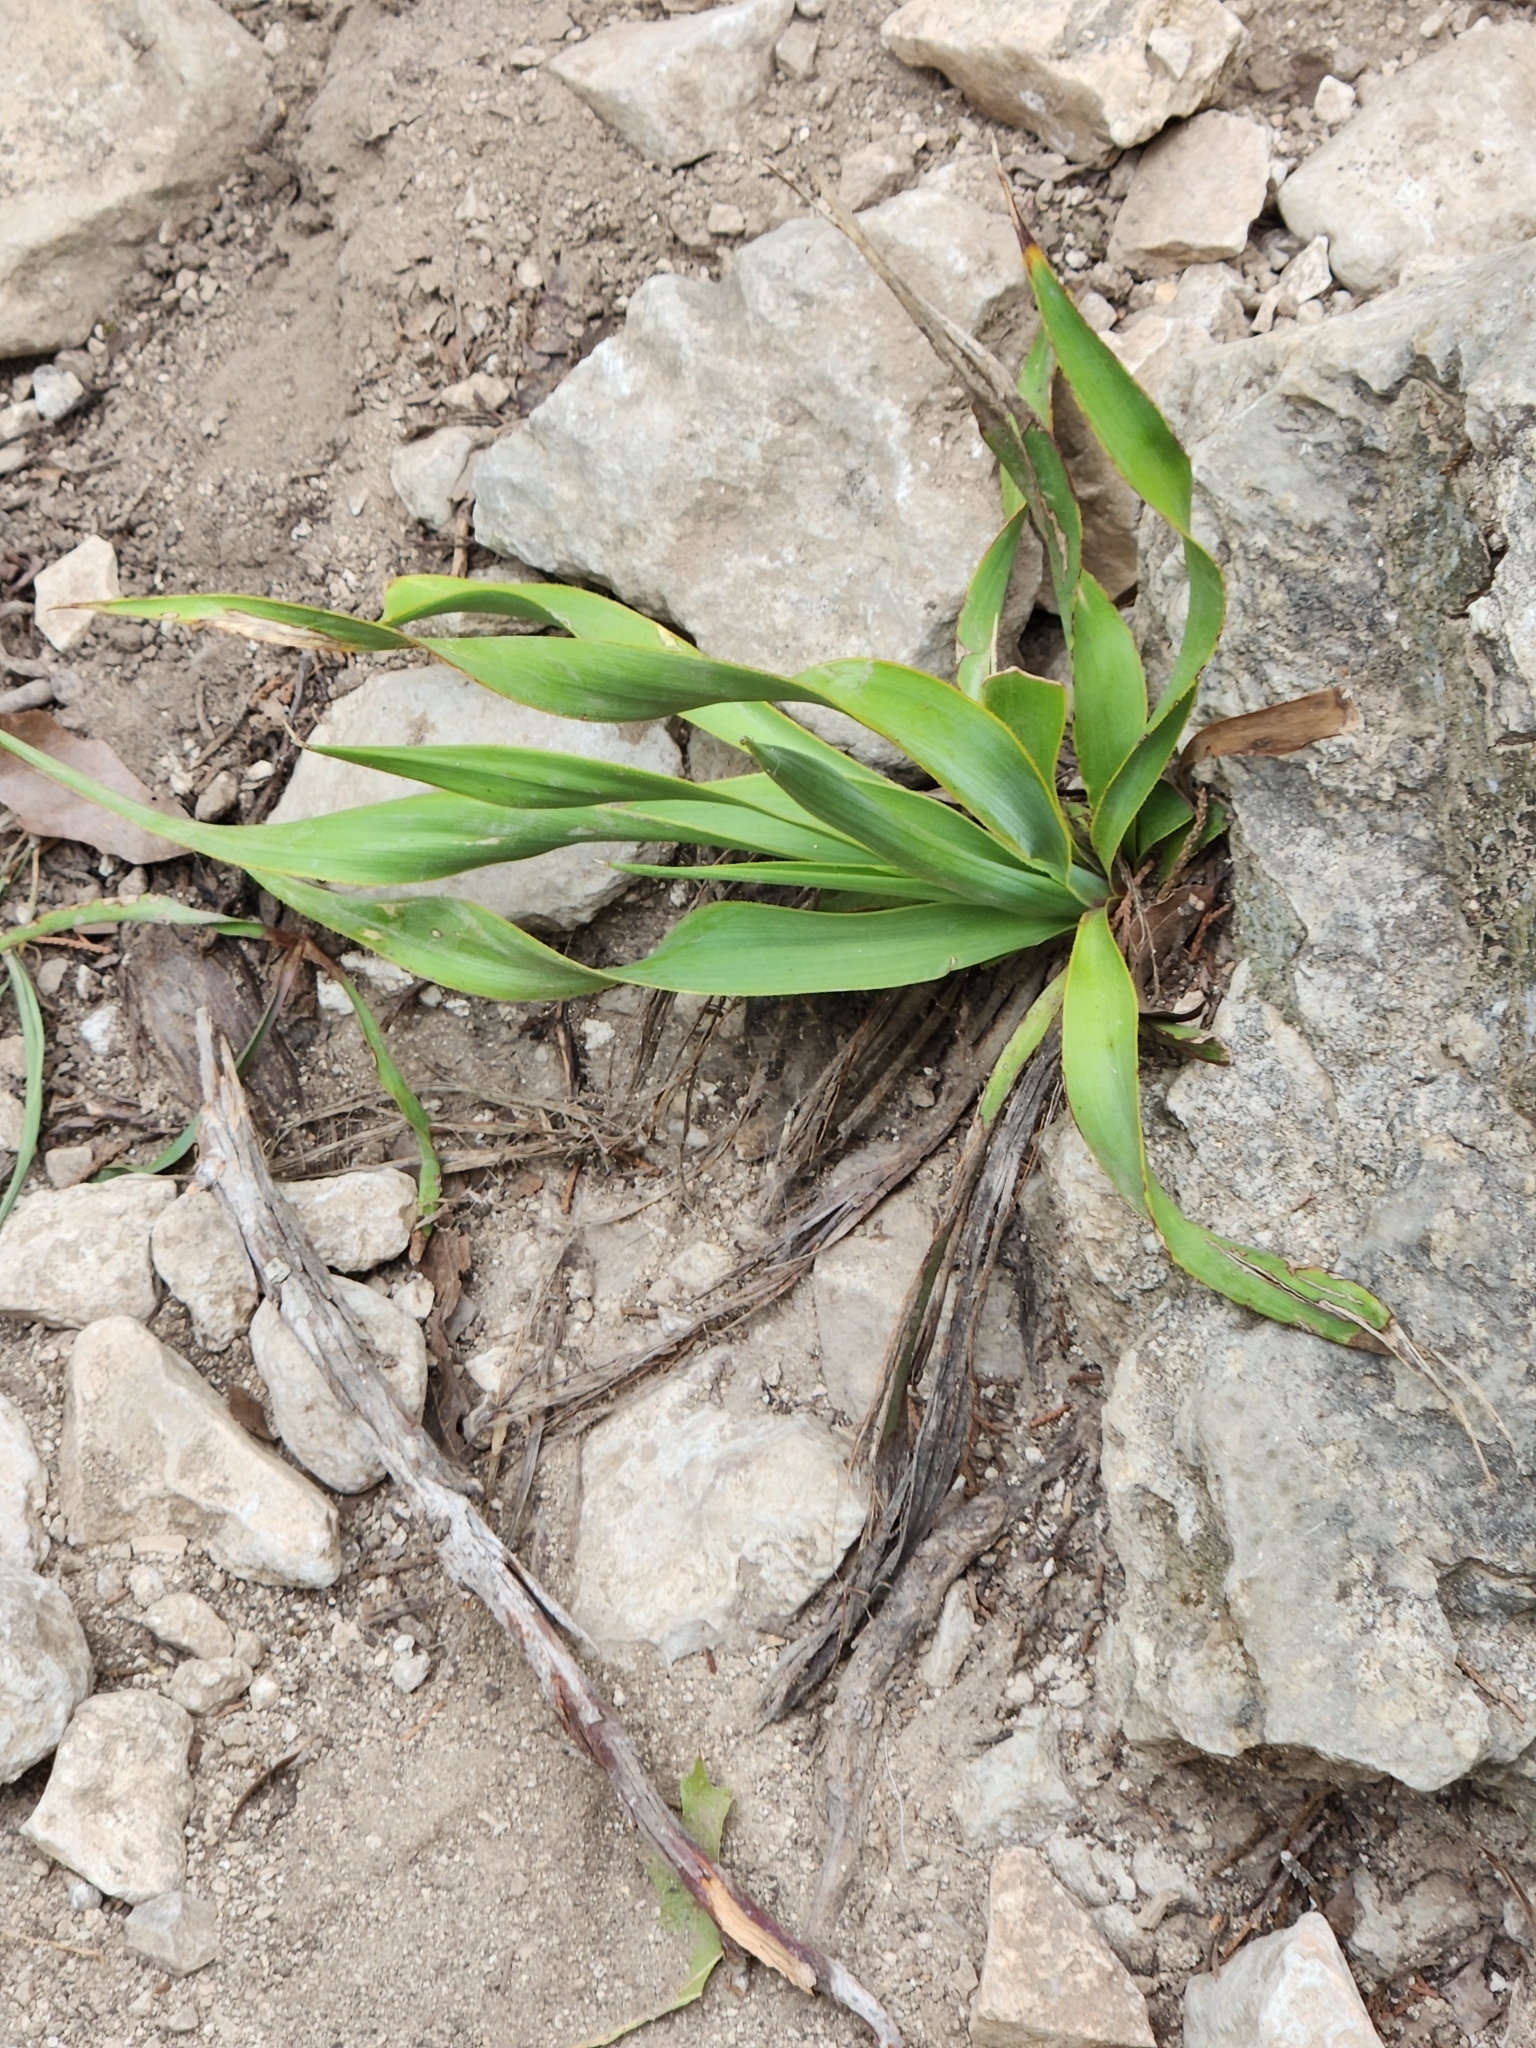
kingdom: Plantae
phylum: Tracheophyta
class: Liliopsida
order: Asparagales
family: Asparagaceae
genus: Yucca
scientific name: Yucca rupicola
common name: Twisted-leaf spanish-dagger
